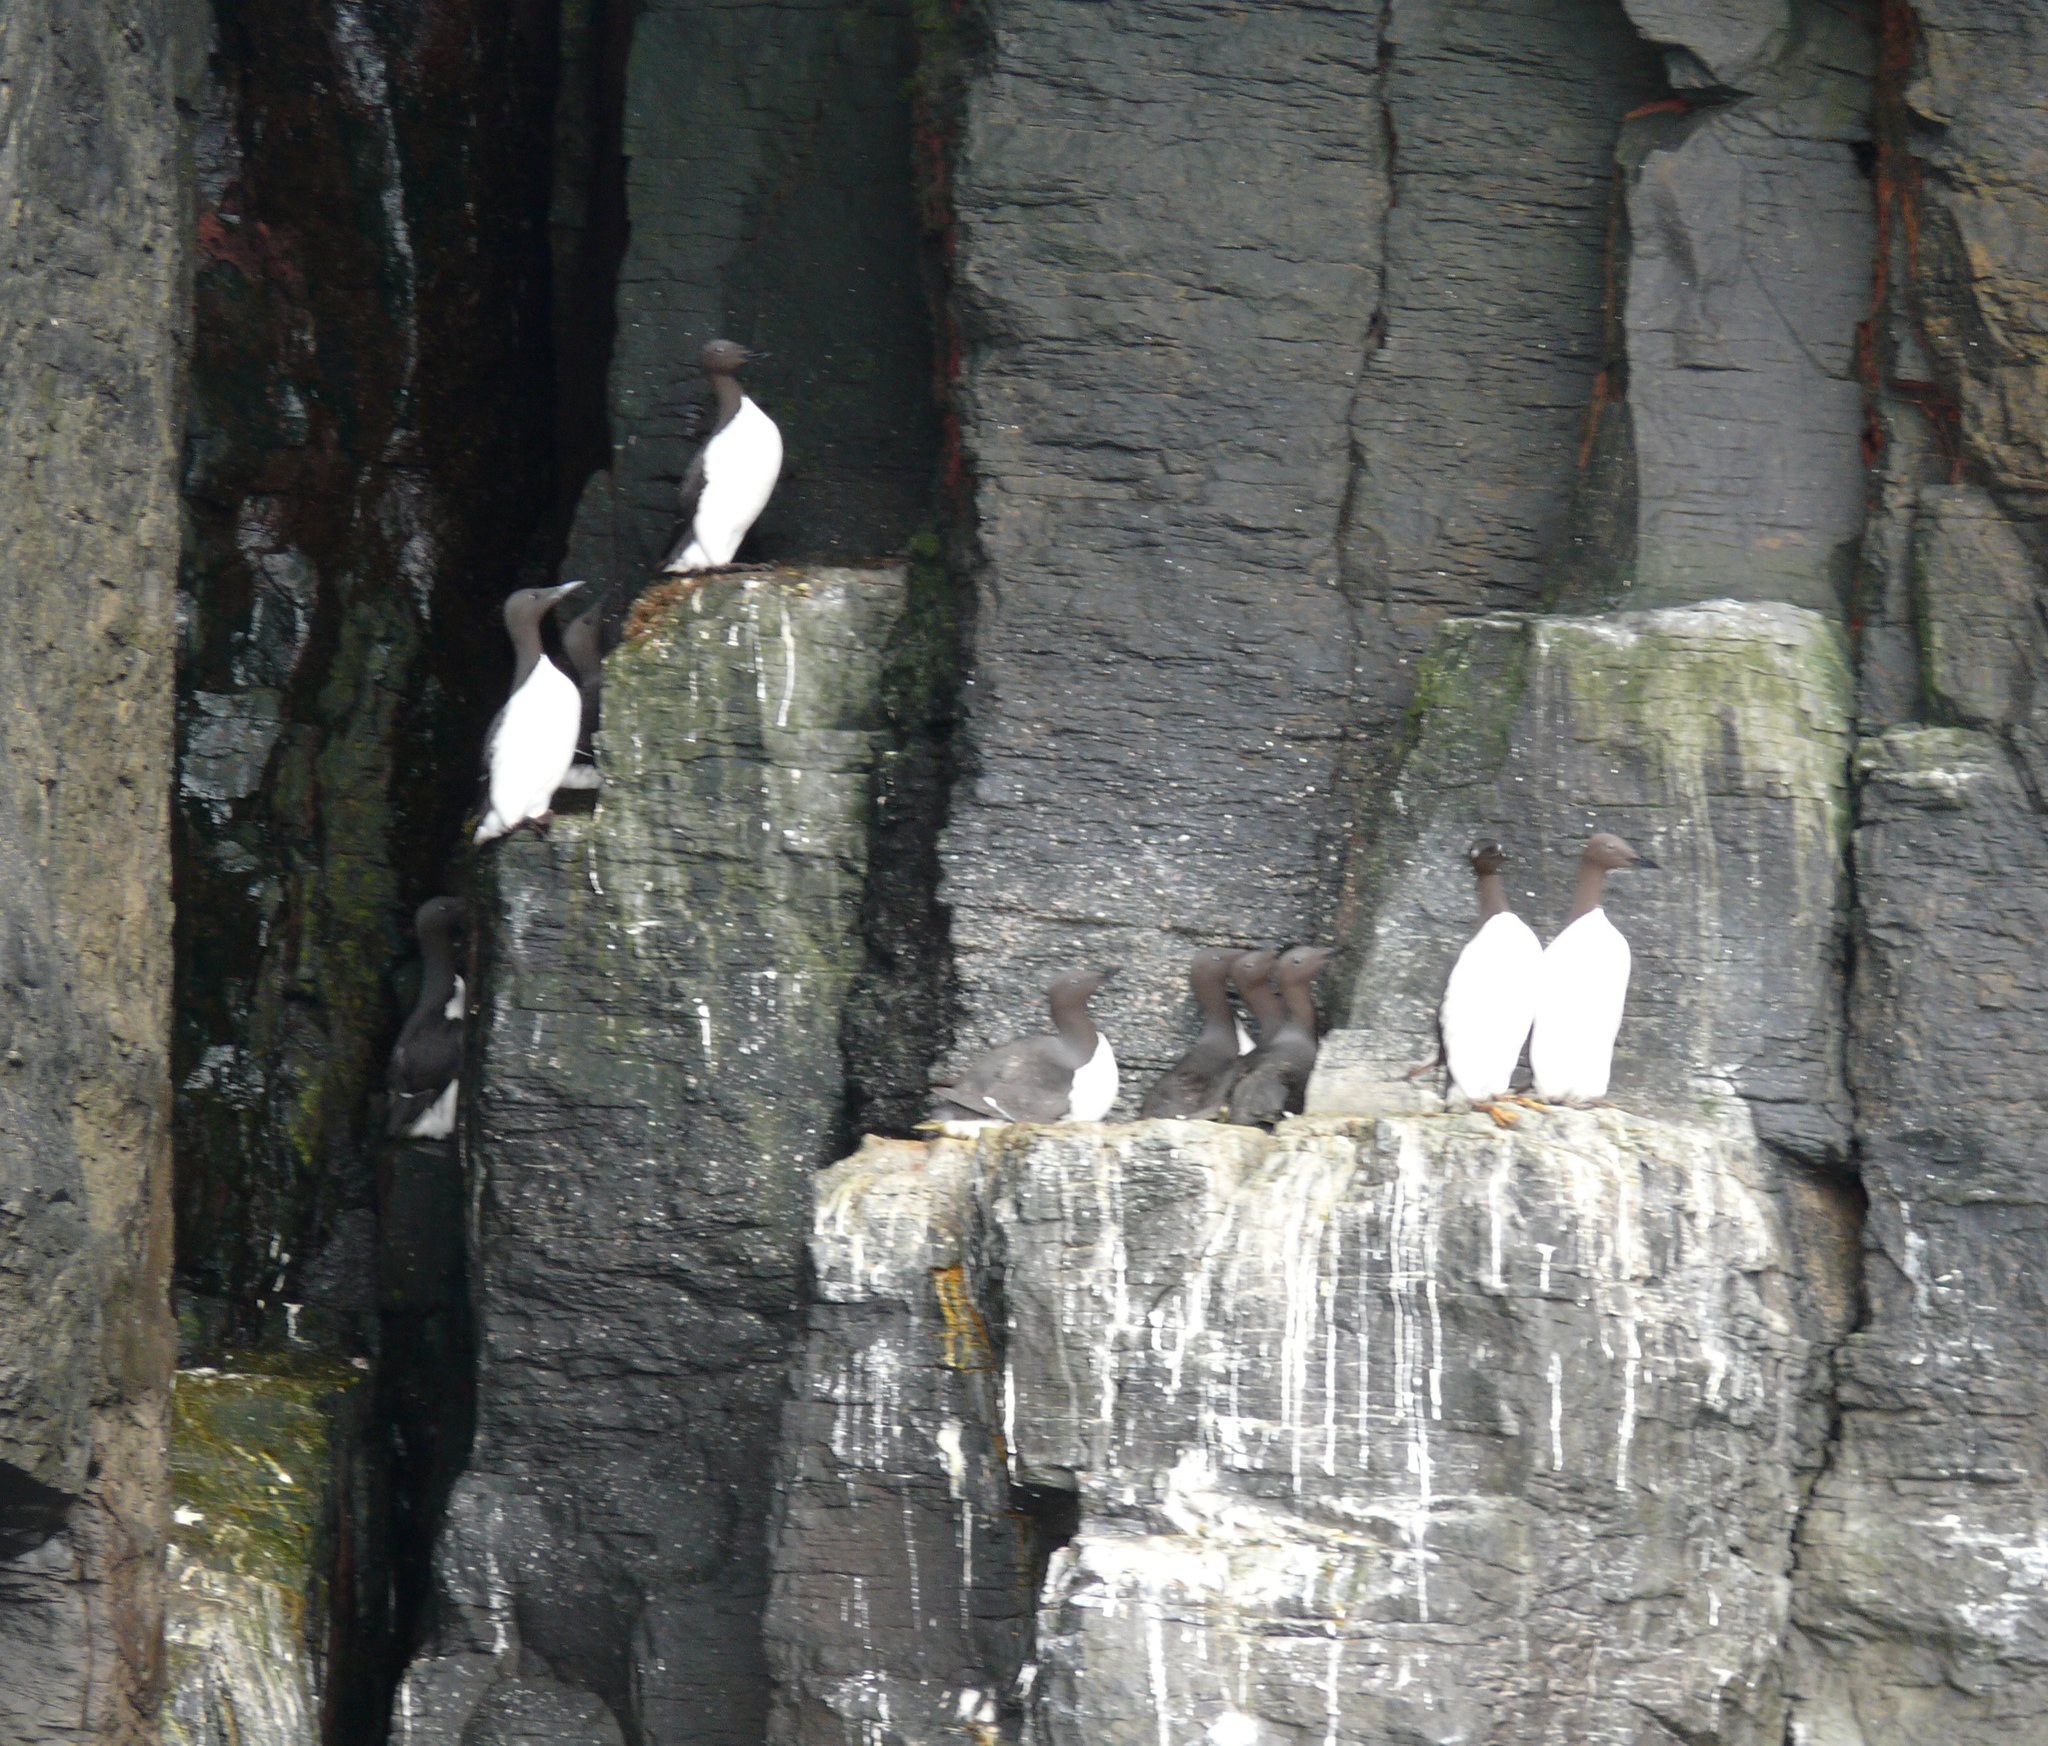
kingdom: Animalia
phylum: Chordata
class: Aves
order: Charadriiformes
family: Alcidae
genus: Uria
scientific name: Uria aalge
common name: Common murre
